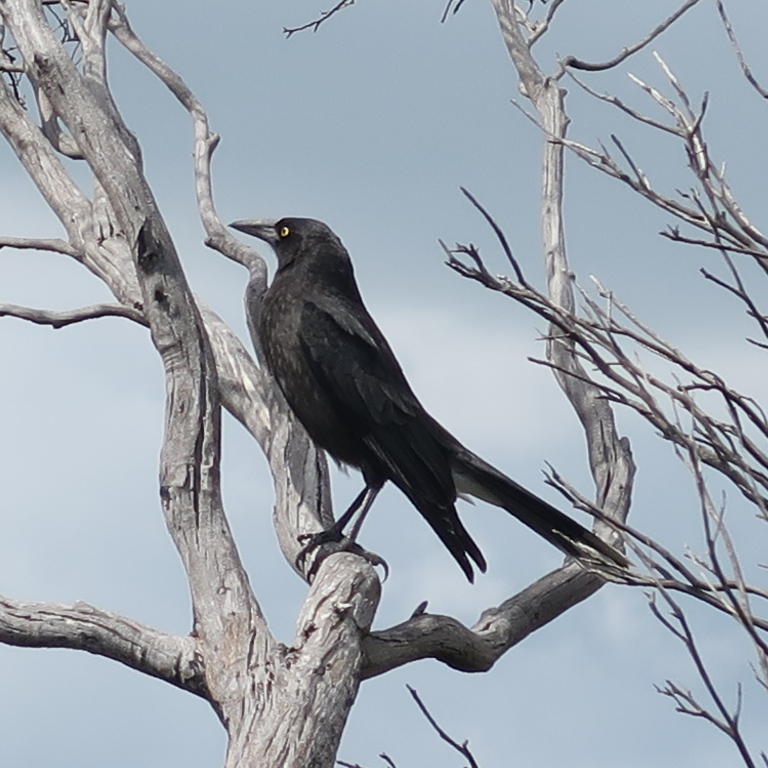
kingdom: Animalia
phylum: Chordata
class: Aves
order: Passeriformes
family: Cracticidae
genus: Strepera
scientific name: Strepera versicolor
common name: Grey currawong
